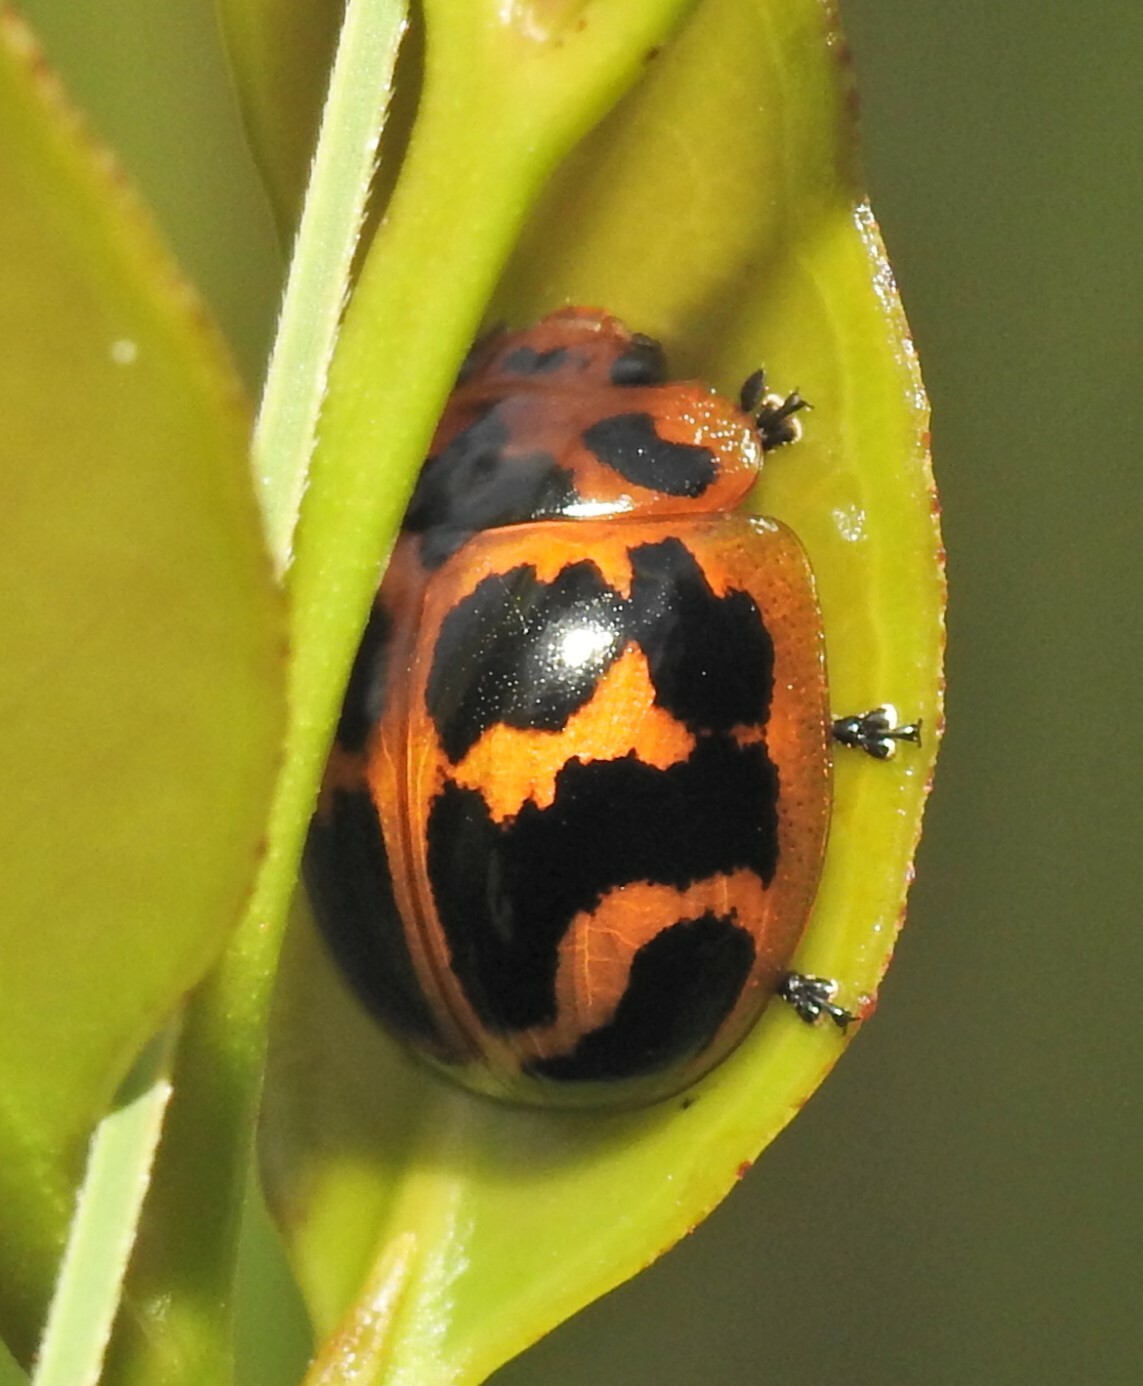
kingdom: Animalia
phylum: Arthropoda
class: Insecta
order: Coleoptera
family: Chrysomelidae
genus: Paropsisterna
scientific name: Paropsisterna
